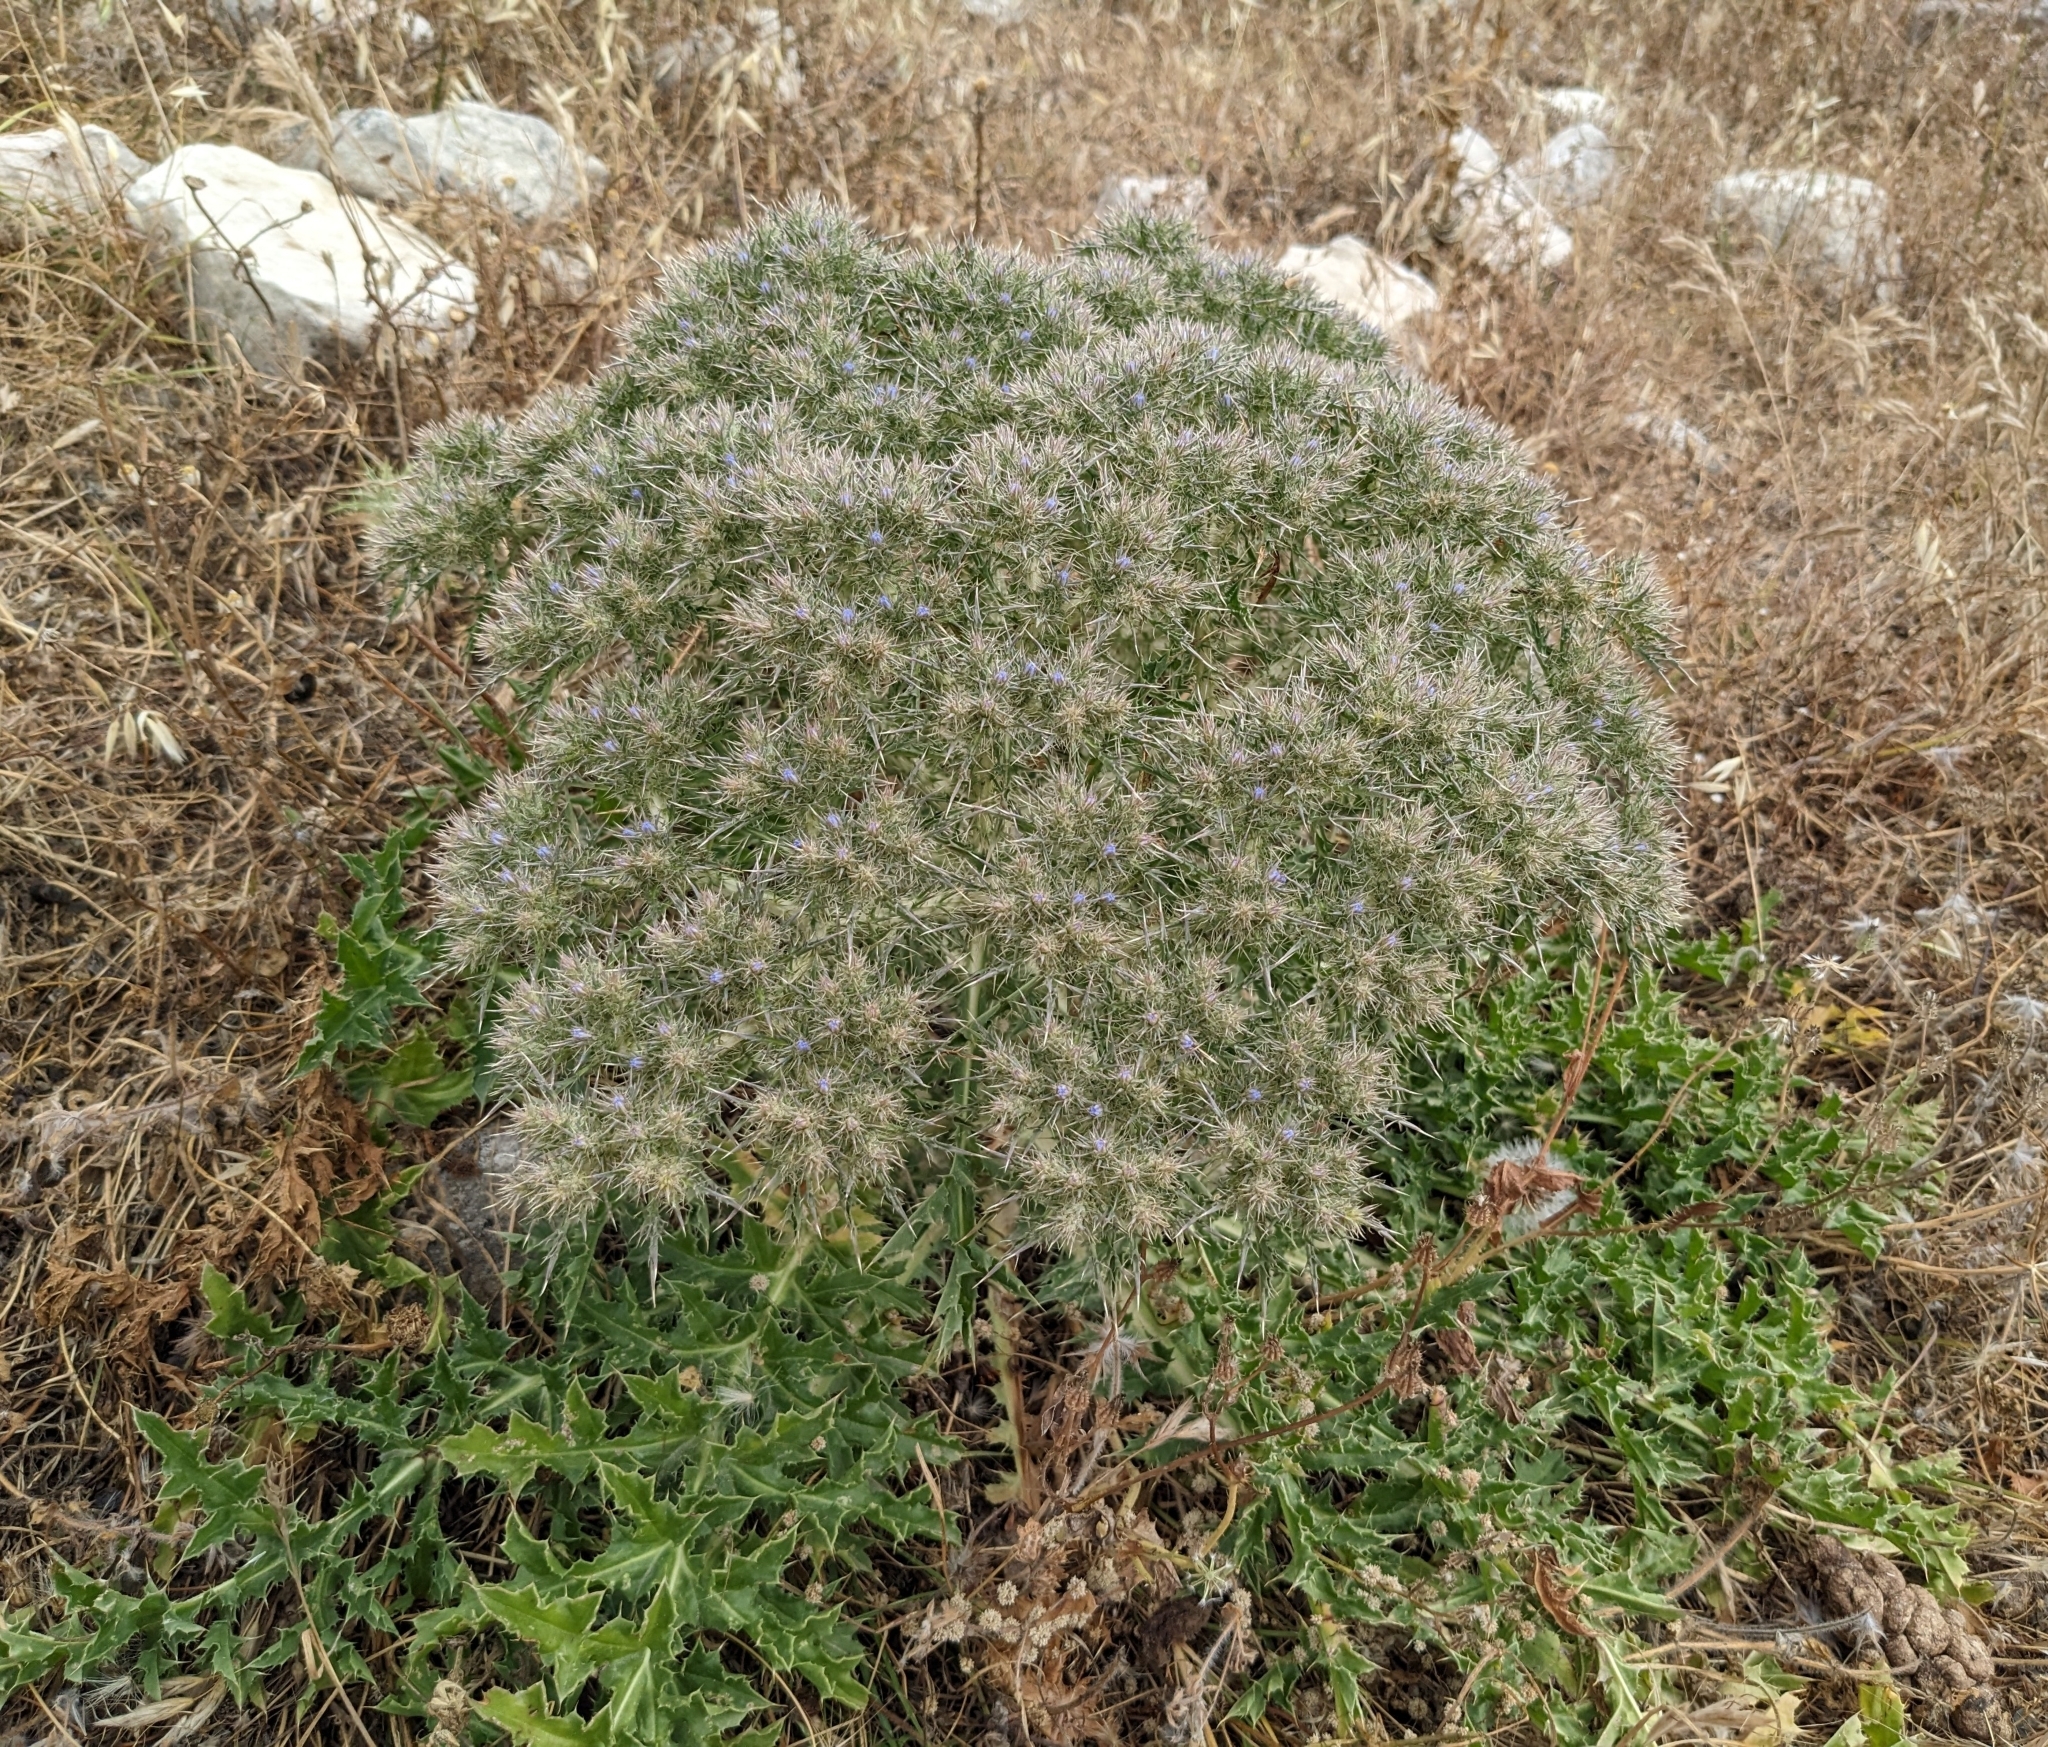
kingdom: Plantae
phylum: Tracheophyta
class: Magnoliopsida
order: Asterales
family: Asteraceae
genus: Cardopatium
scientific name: Cardopatium corymbosum
